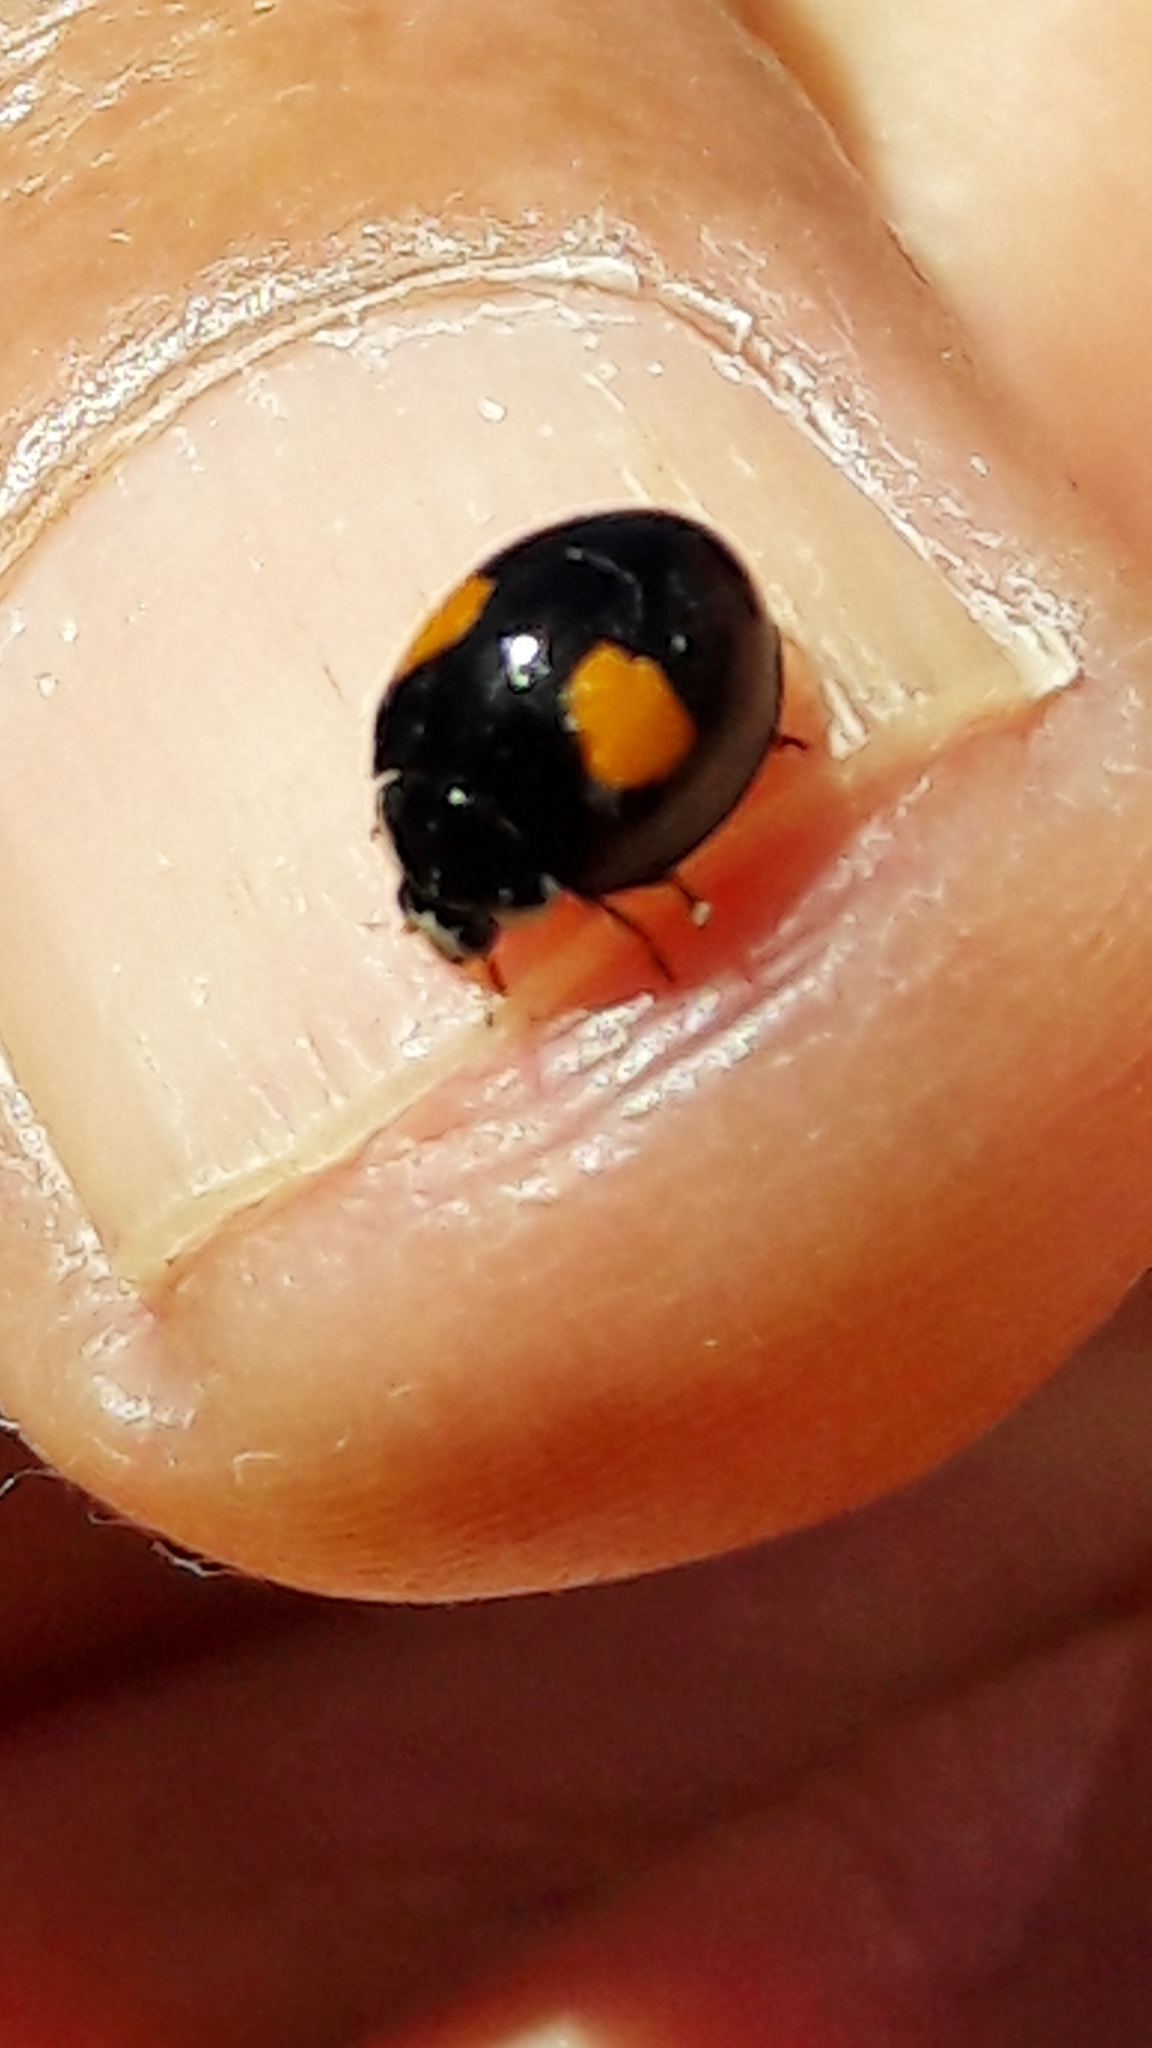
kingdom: Animalia
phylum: Arthropoda
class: Insecta
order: Coleoptera
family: Coccinellidae
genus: Olla
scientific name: Olla v-nigrum
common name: Ashy gray lady beetle
